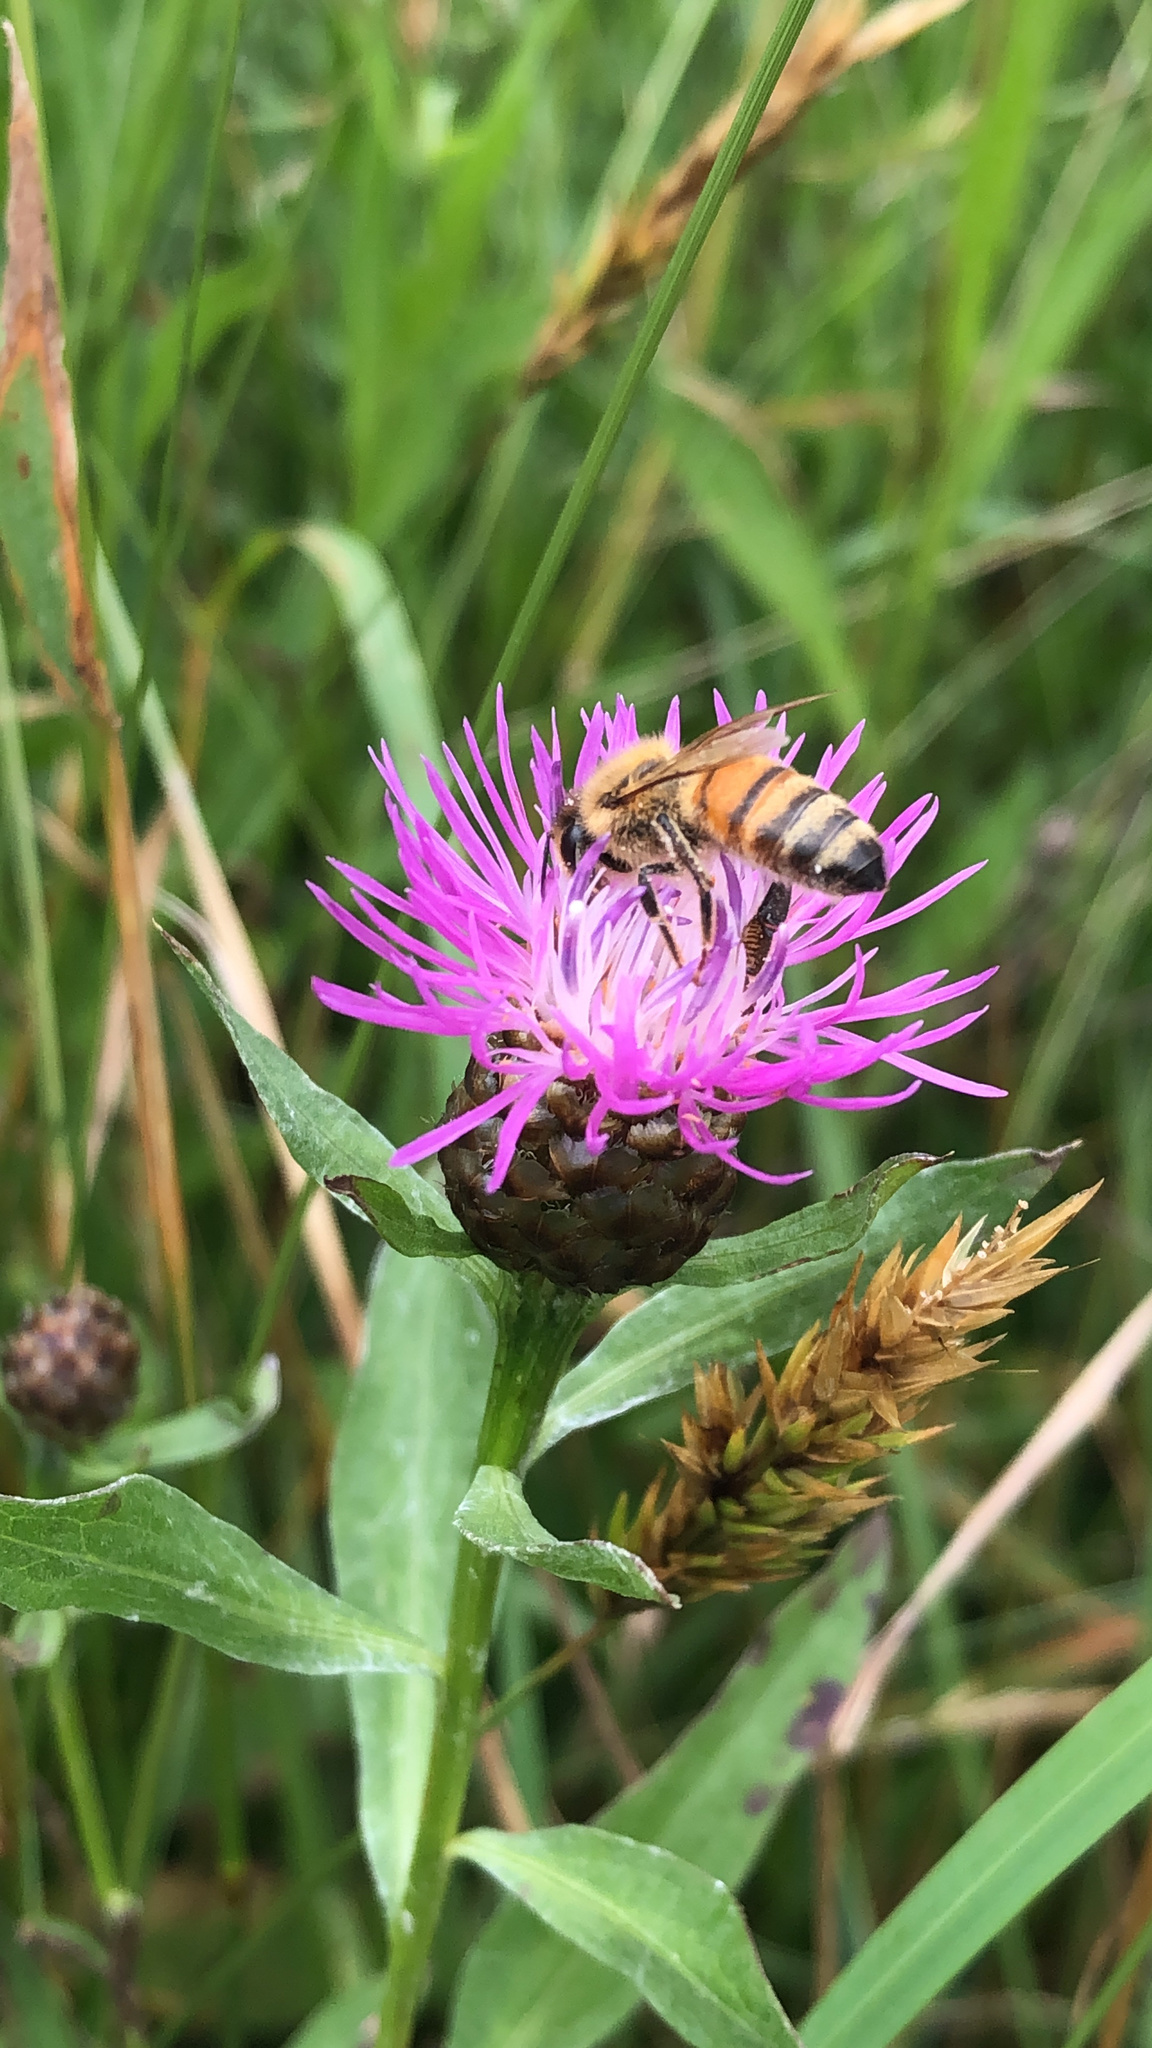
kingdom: Animalia
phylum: Arthropoda
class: Insecta
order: Hymenoptera
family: Apidae
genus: Apis
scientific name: Apis mellifera
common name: Honey bee
